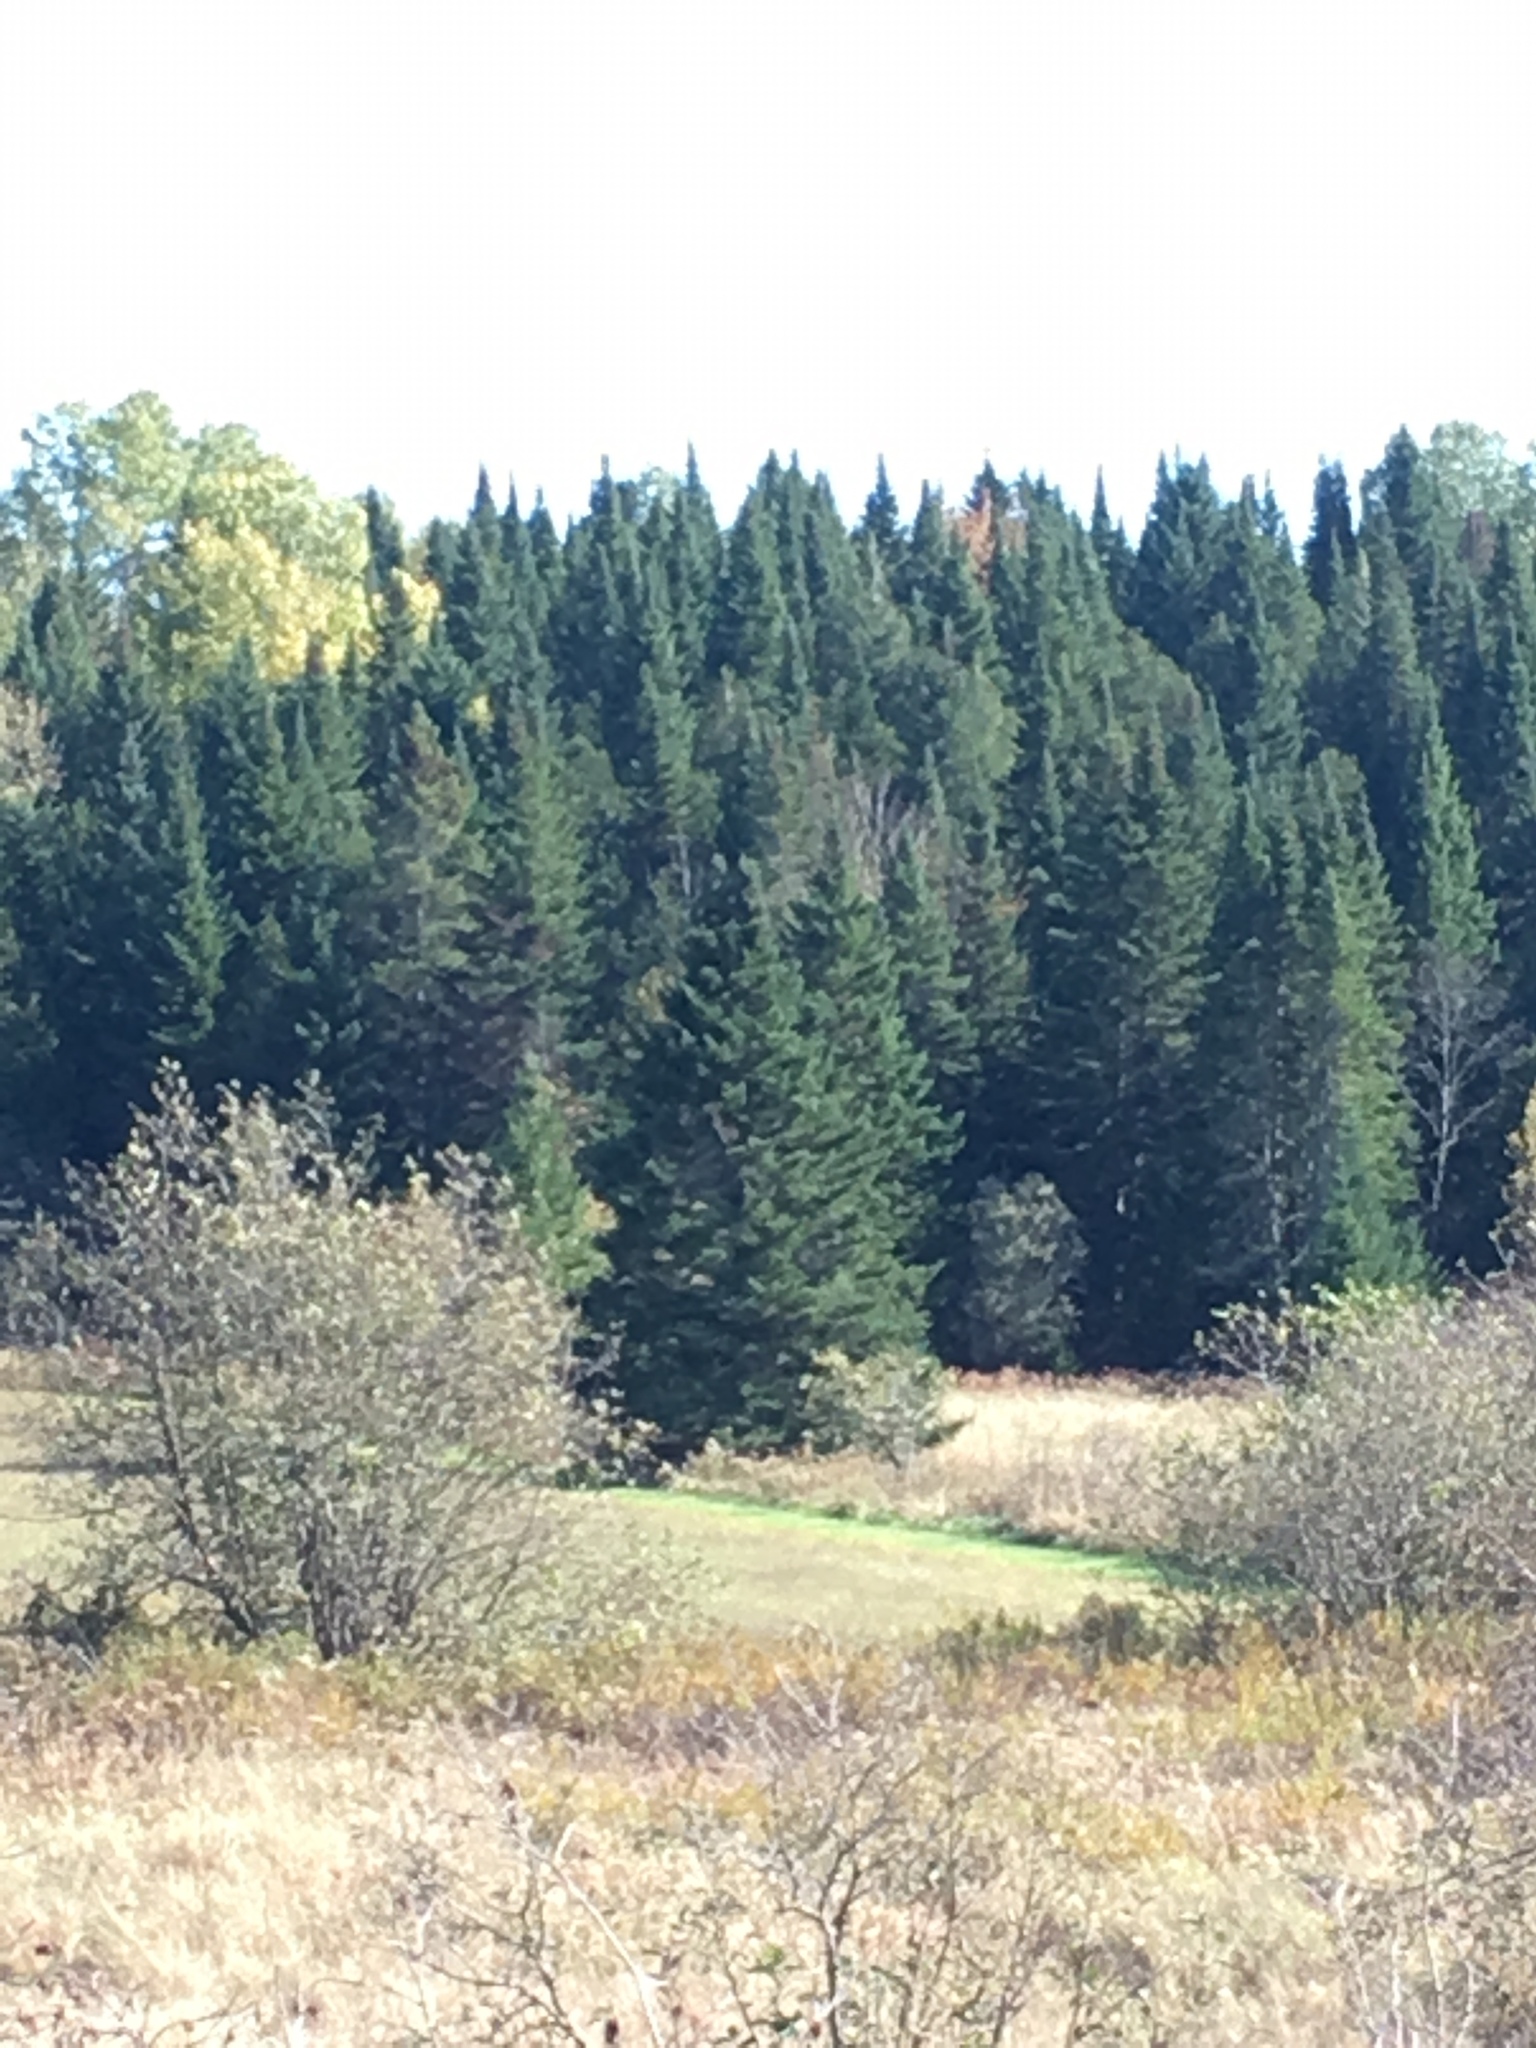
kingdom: Plantae
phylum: Tracheophyta
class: Pinopsida
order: Pinales
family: Pinaceae
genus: Abies
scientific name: Abies balsamea
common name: Balsam fir
